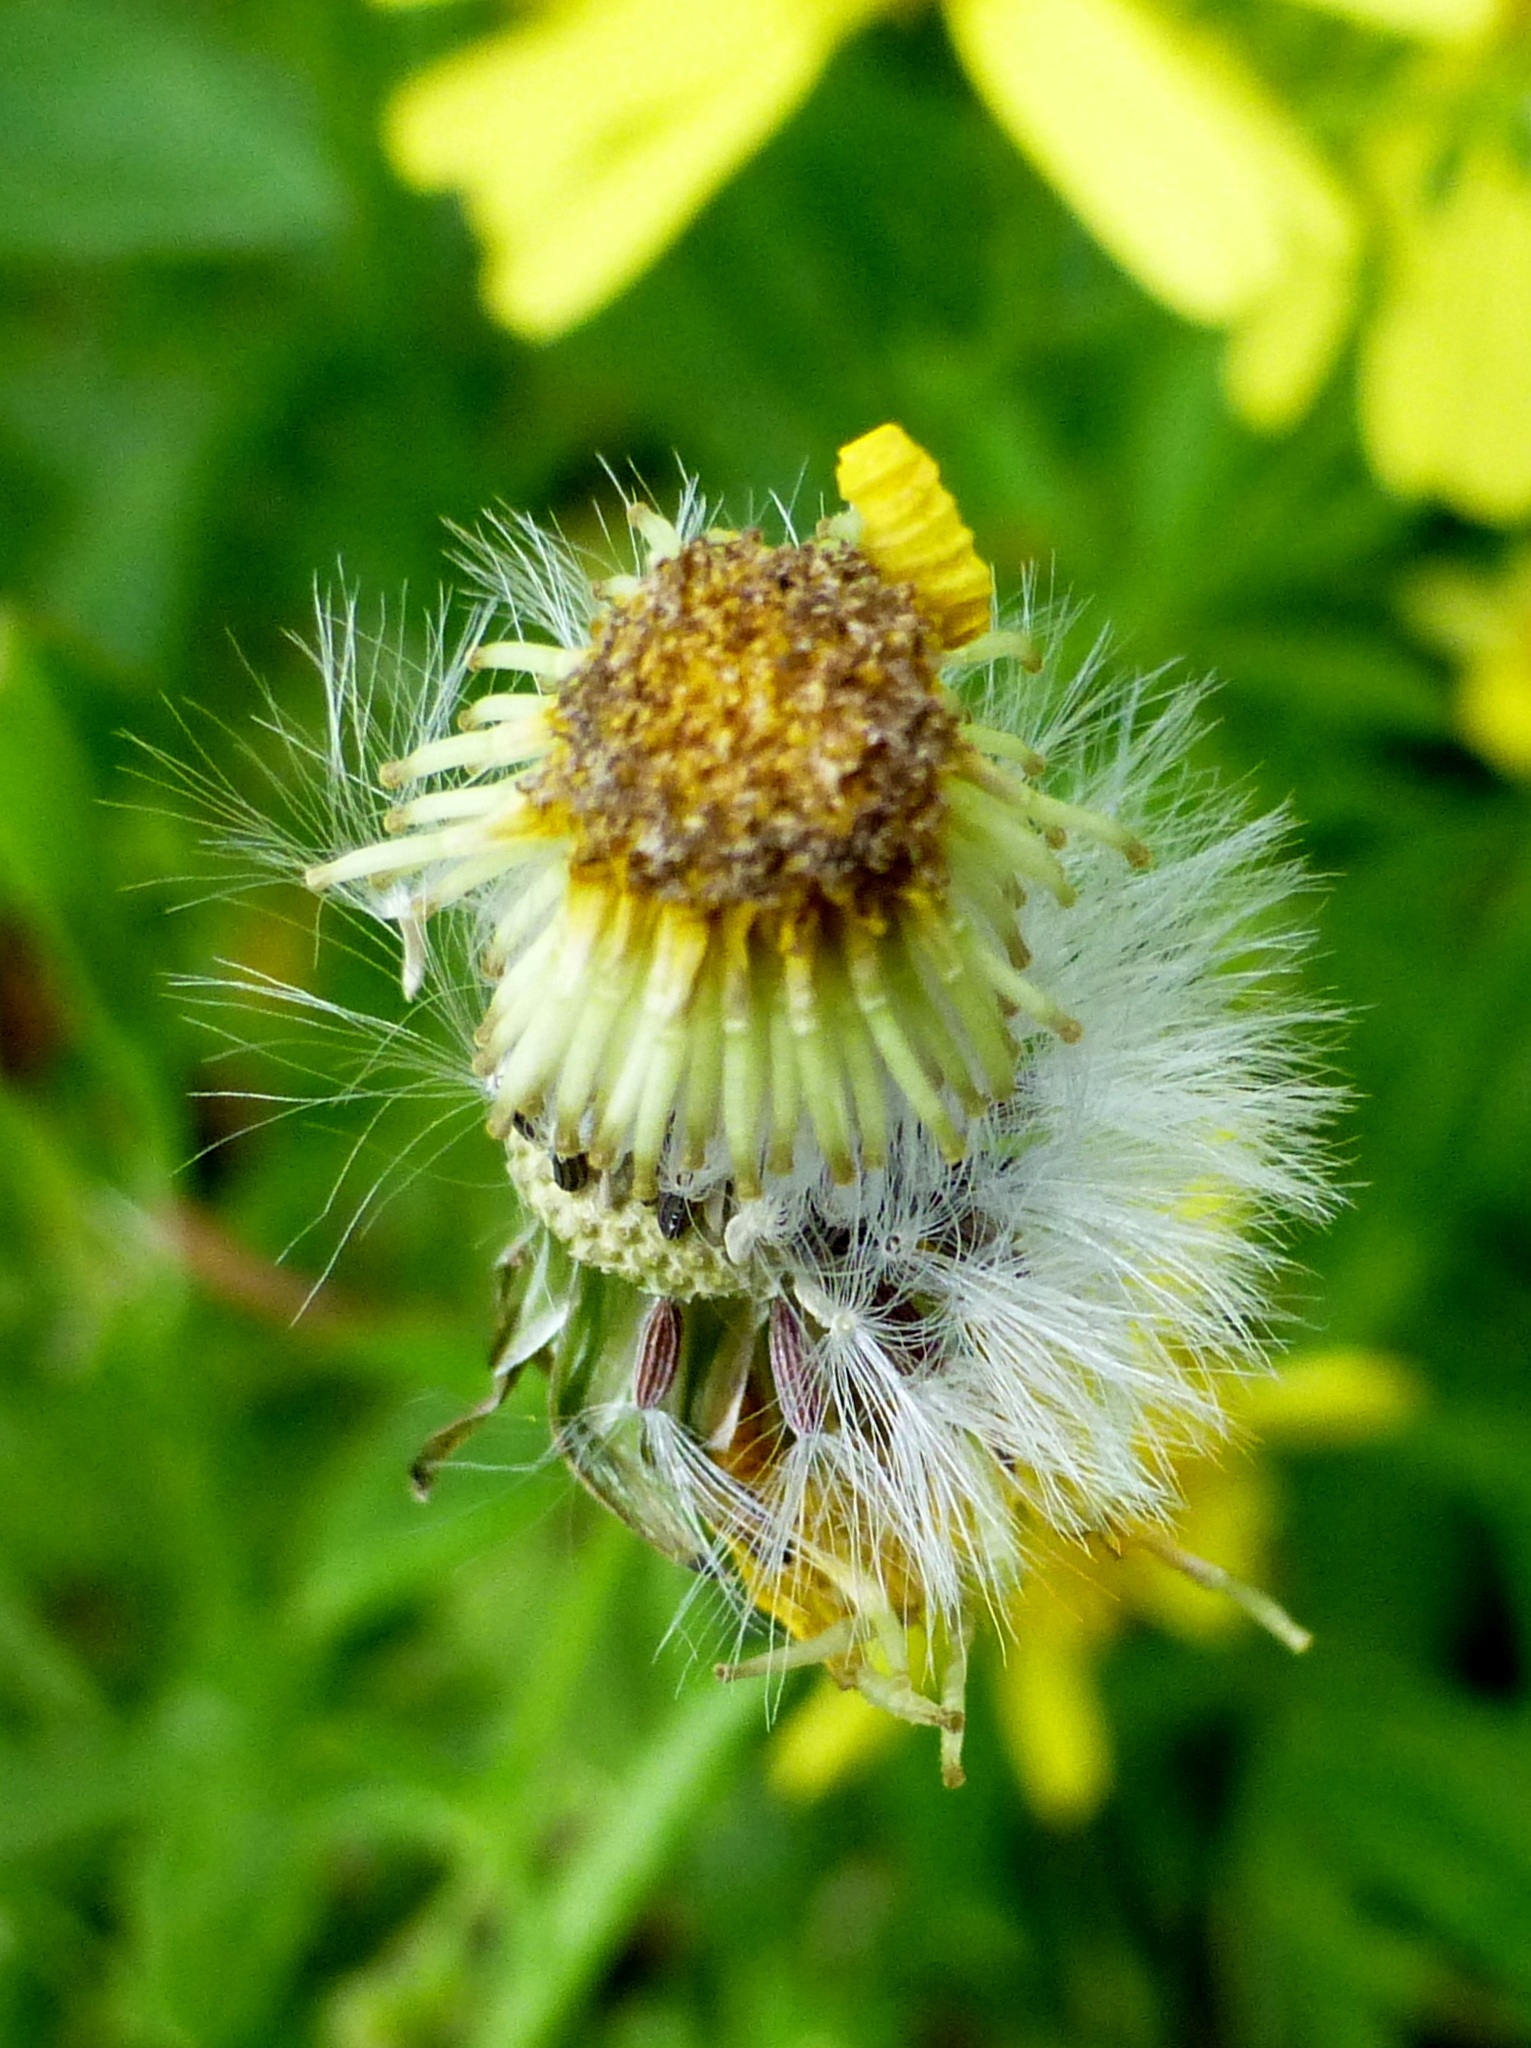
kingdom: Plantae
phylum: Tracheophyta
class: Magnoliopsida
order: Asterales
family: Asteraceae
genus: Senecio
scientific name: Senecio skirrhodon
